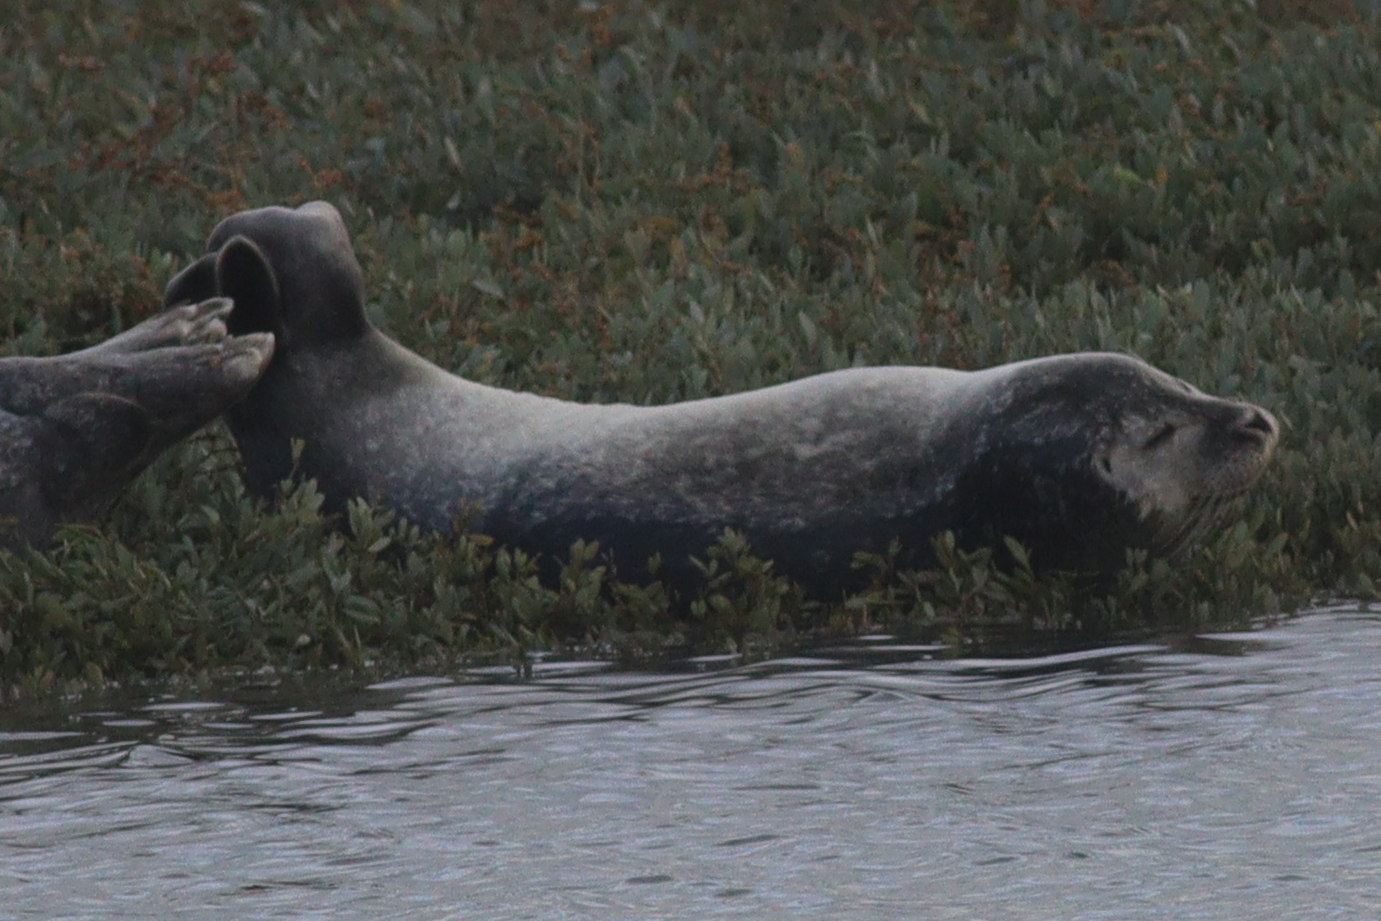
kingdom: Animalia
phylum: Chordata
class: Mammalia
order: Carnivora
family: Phocidae
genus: Phoca
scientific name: Phoca vitulina
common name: Harbor seal
